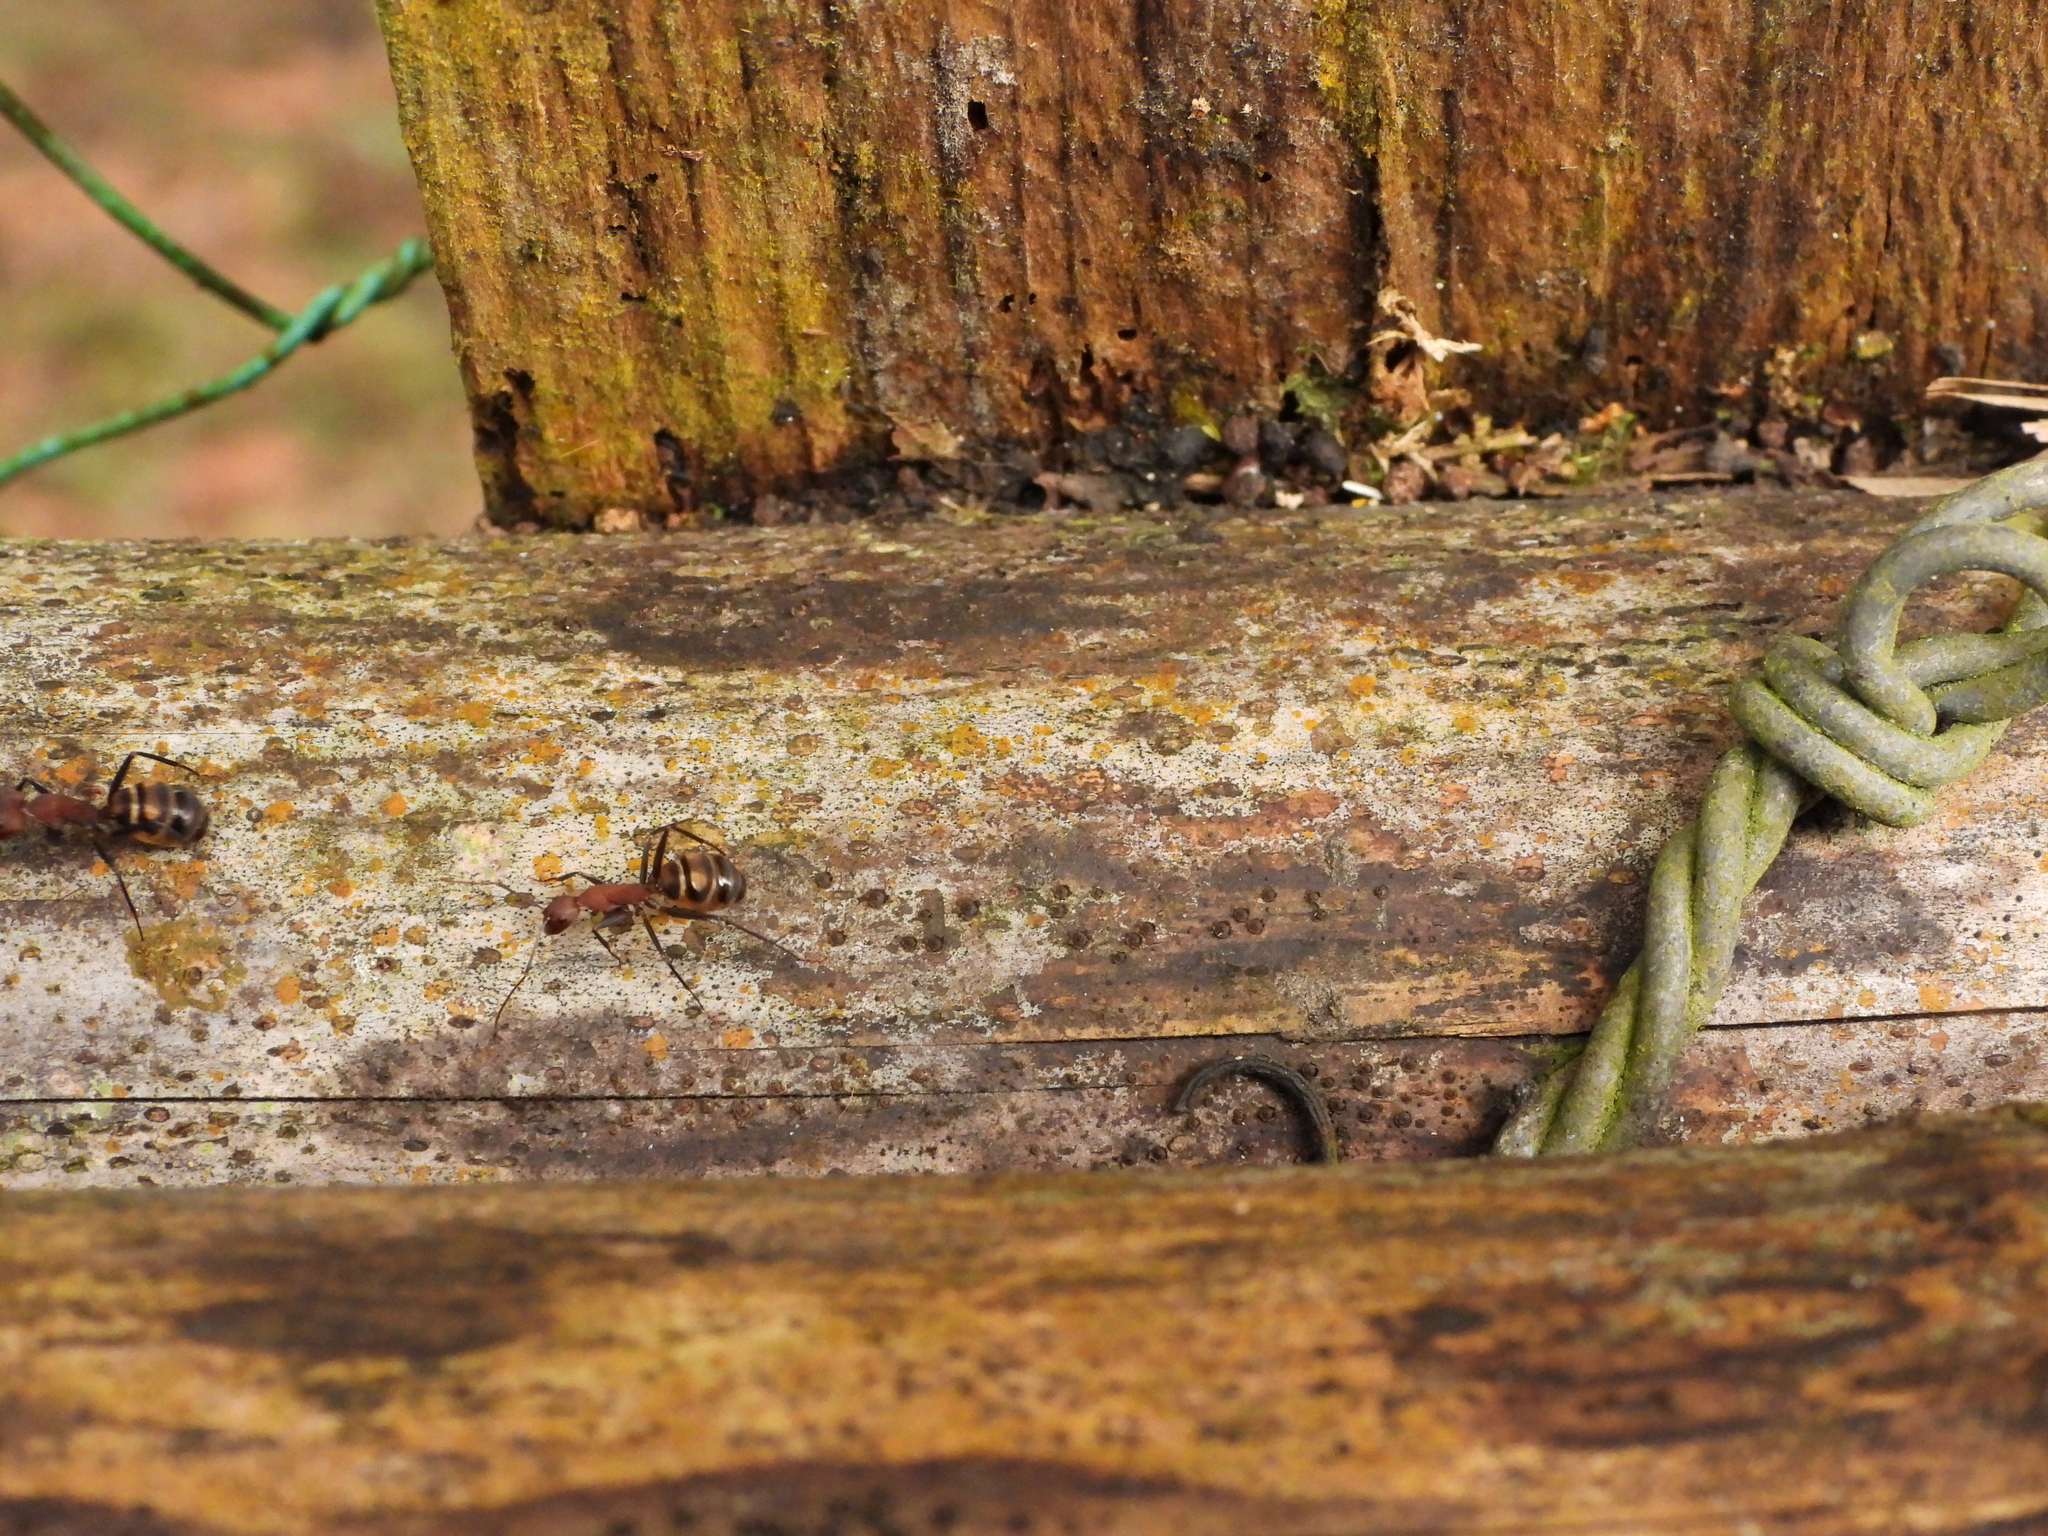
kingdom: Animalia
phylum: Arthropoda
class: Insecta
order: Hymenoptera
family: Formicidae
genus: Camponotus
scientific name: Camponotus habereri
